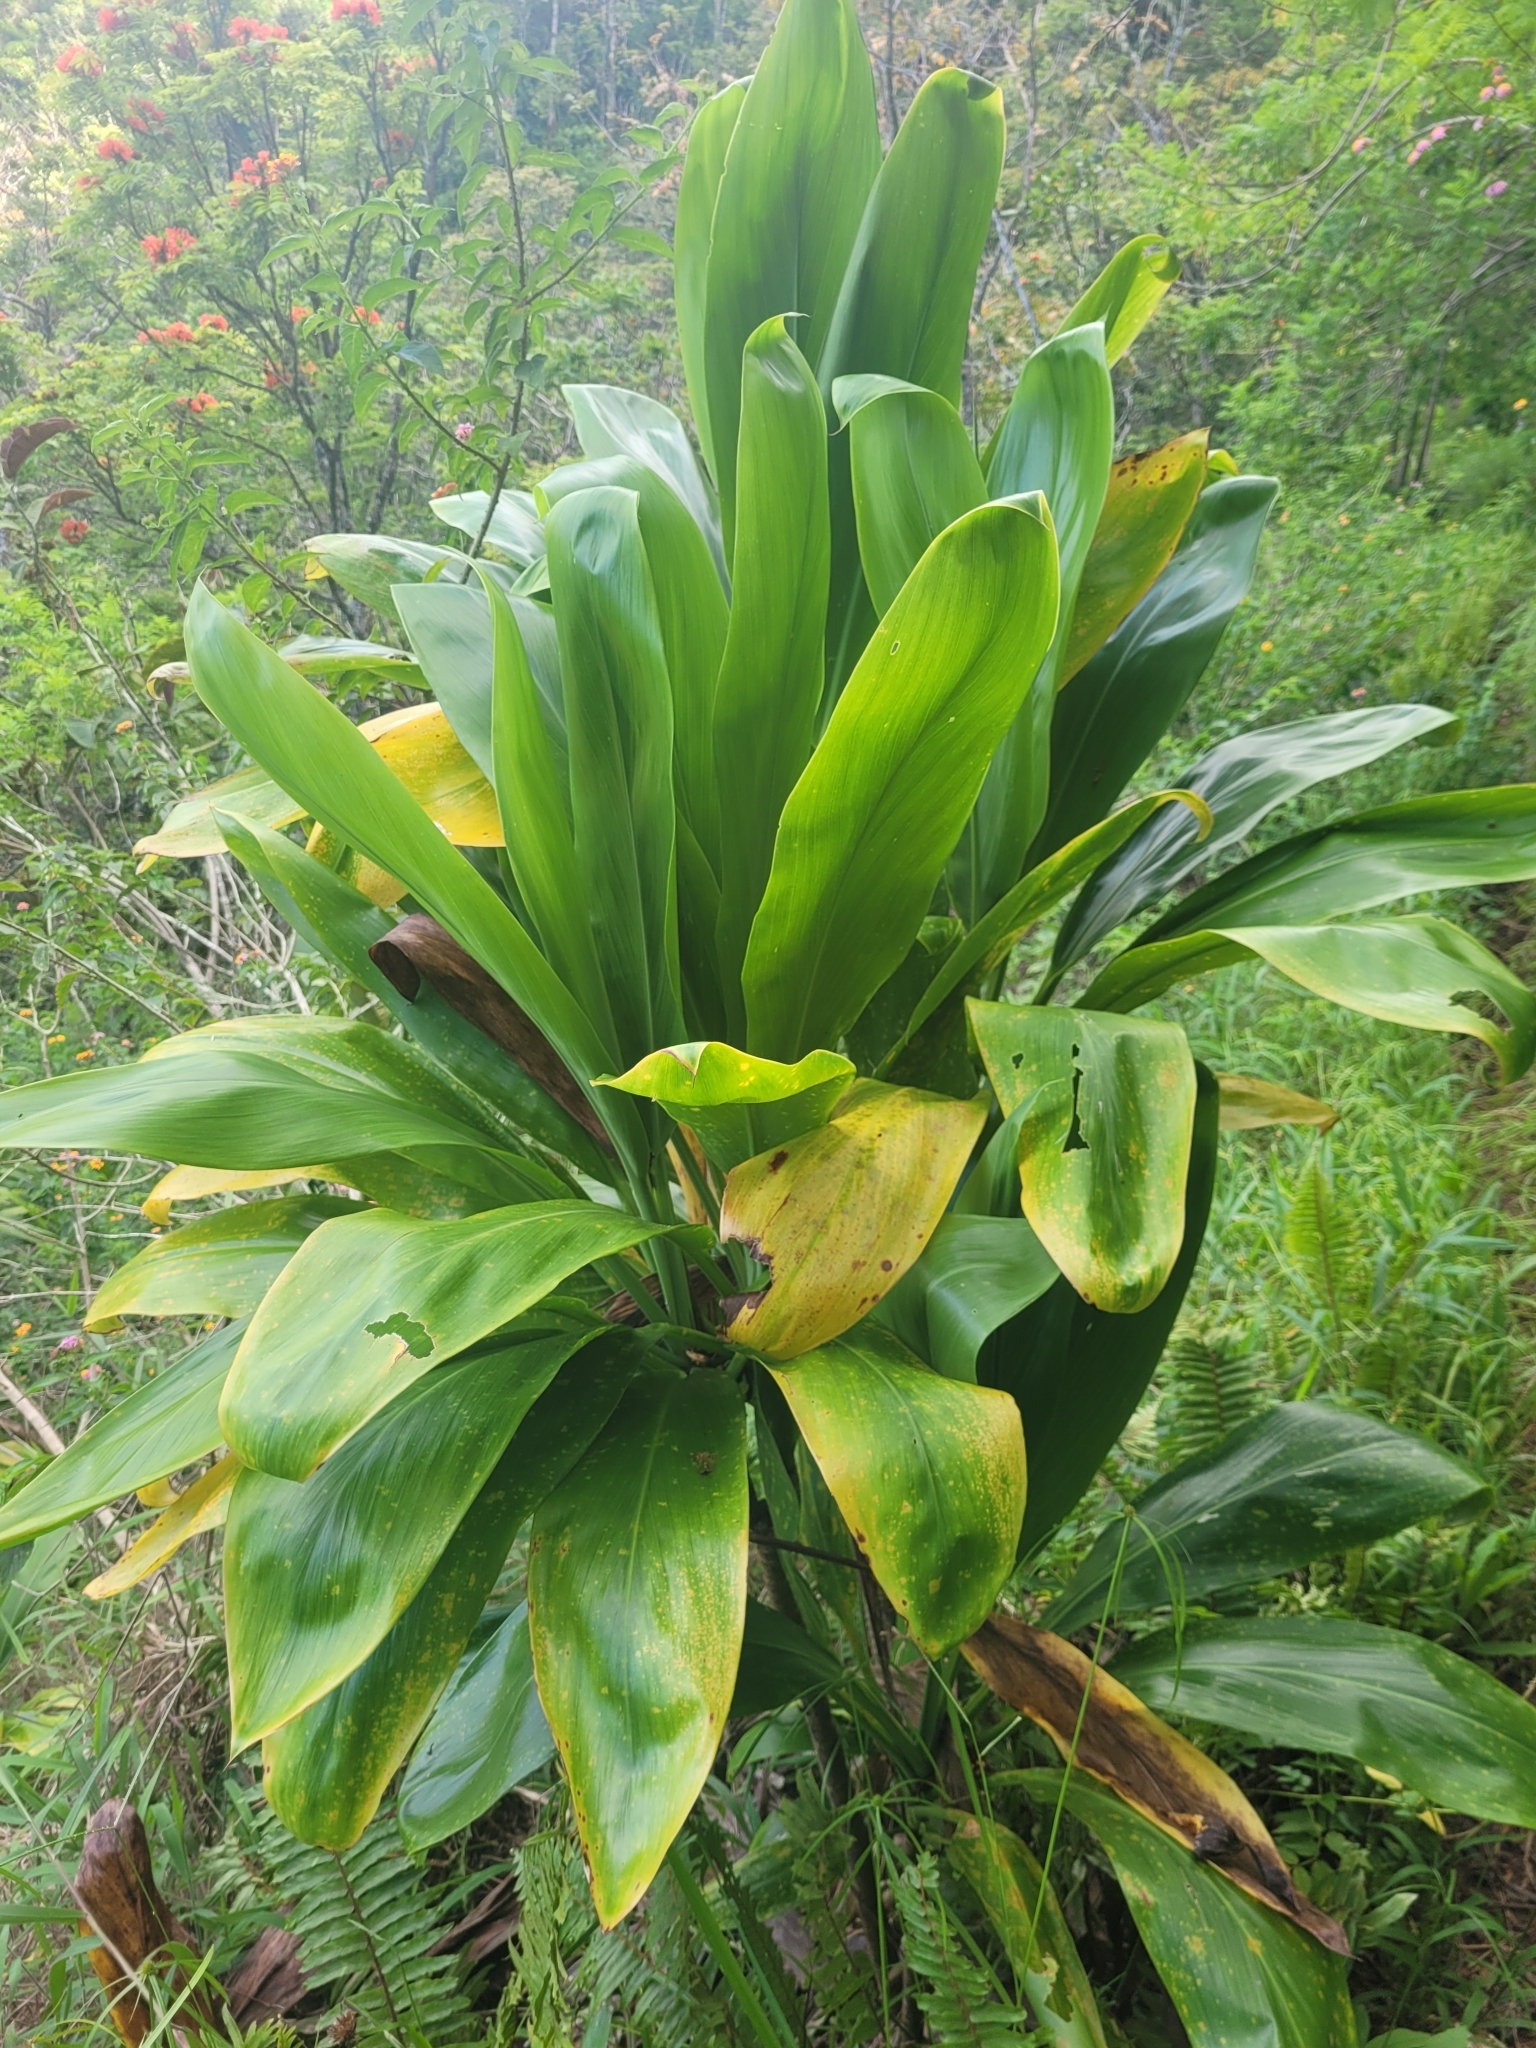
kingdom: Plantae
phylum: Tracheophyta
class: Liliopsida
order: Asparagales
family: Asparagaceae
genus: Cordyline
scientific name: Cordyline fruticosa
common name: Good-luck-plant
